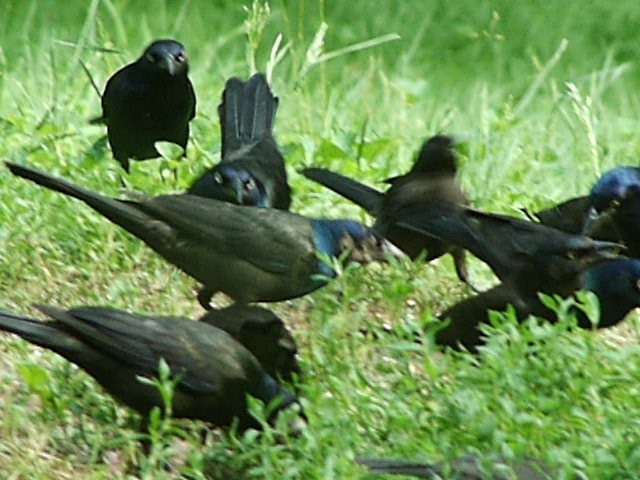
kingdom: Animalia
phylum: Chordata
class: Aves
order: Passeriformes
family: Icteridae
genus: Quiscalus
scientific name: Quiscalus quiscula
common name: Common grackle
